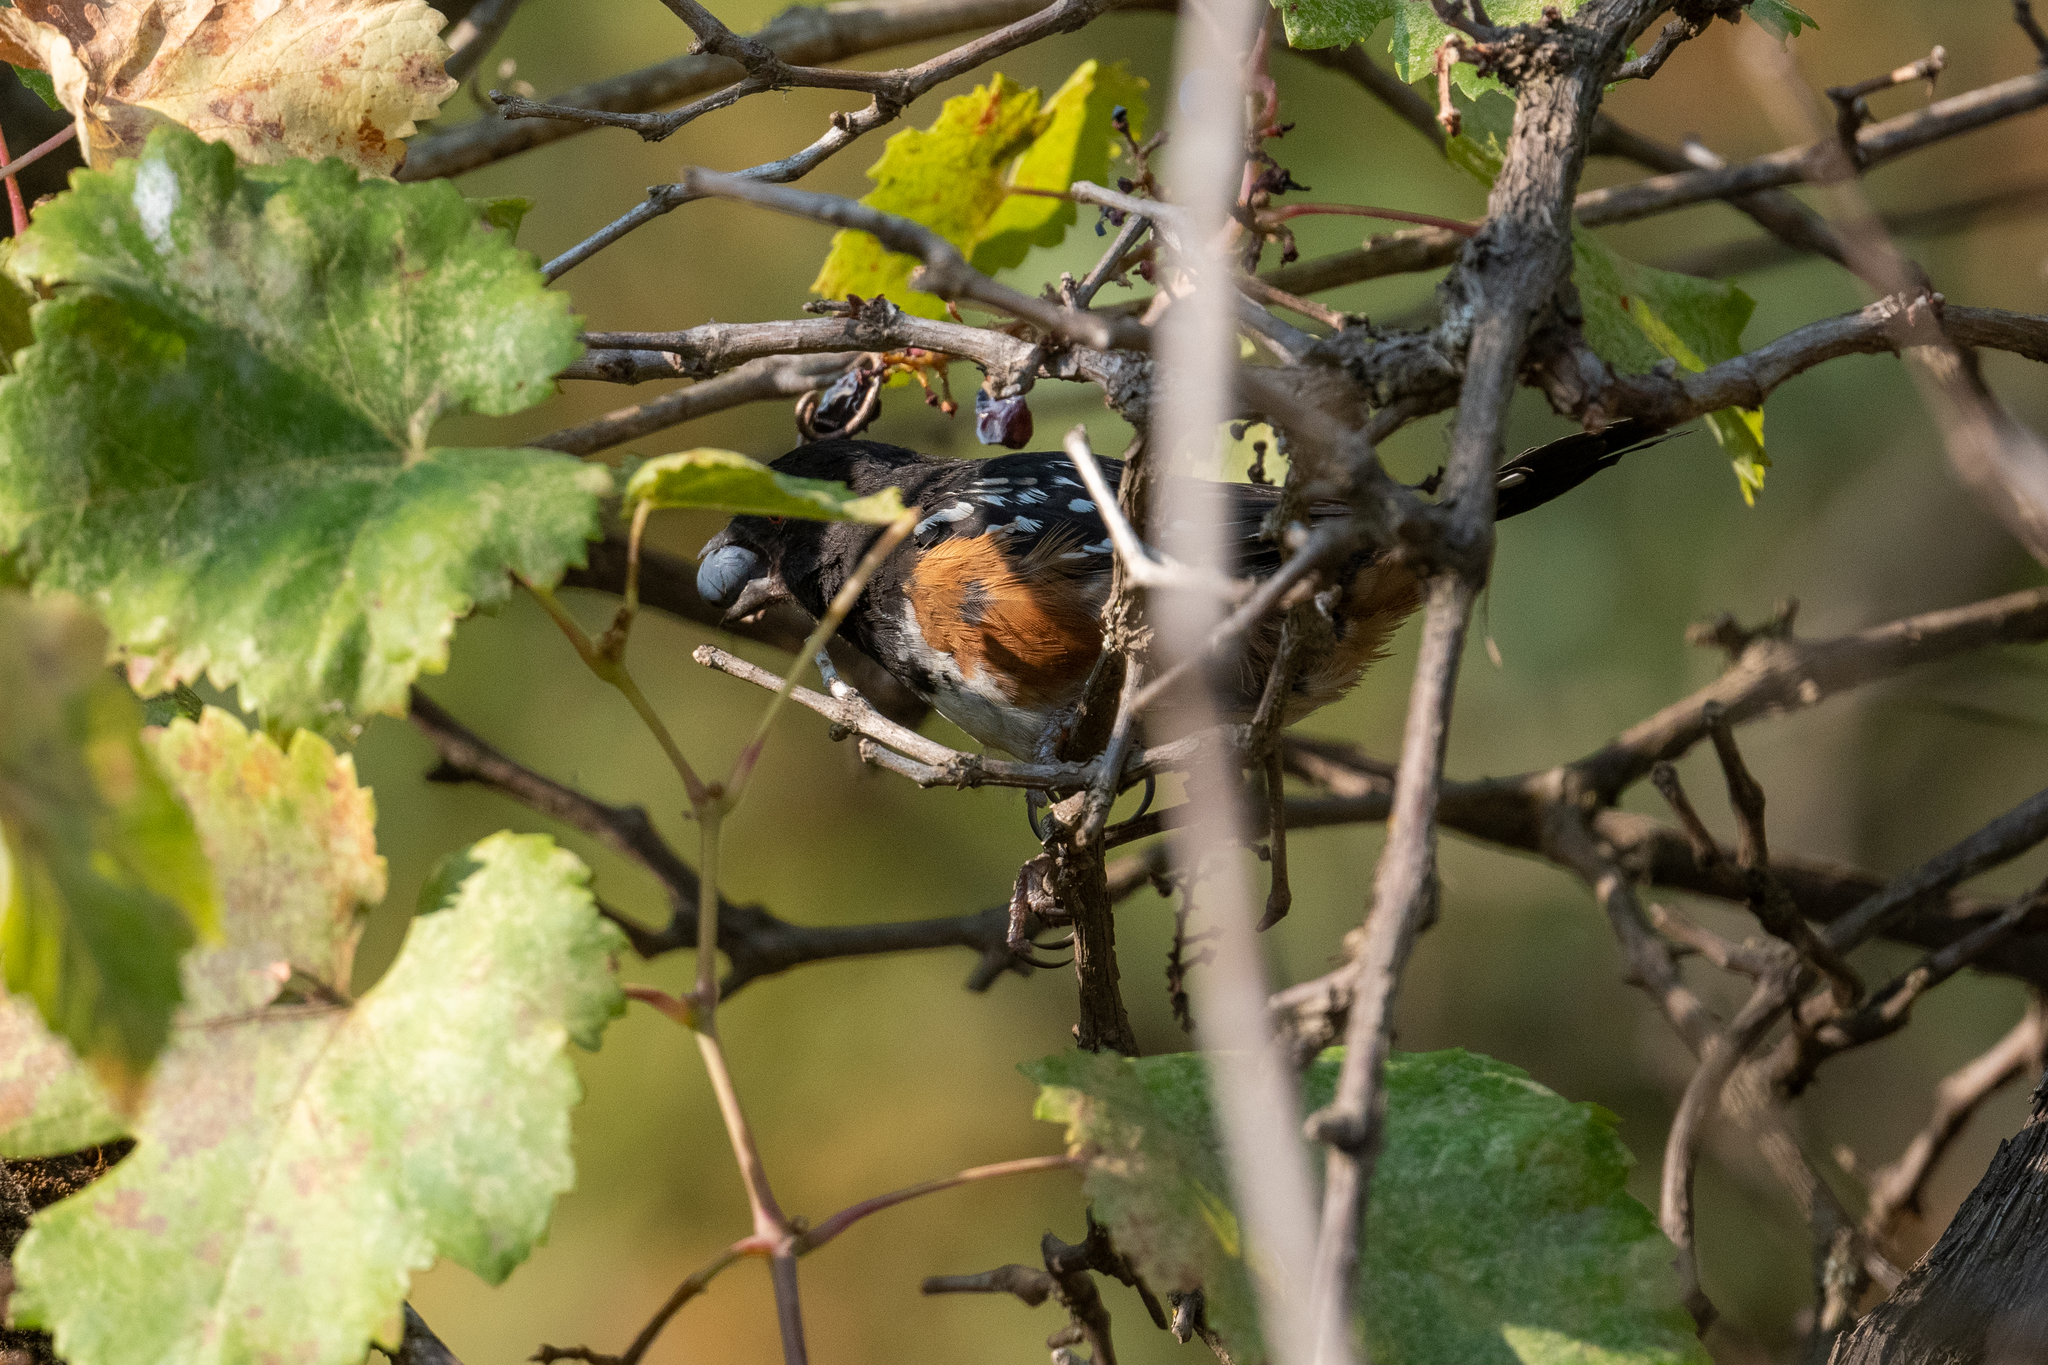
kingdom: Animalia
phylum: Chordata
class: Aves
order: Passeriformes
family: Passerellidae
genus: Pipilo
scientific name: Pipilo maculatus
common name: Spotted towhee
